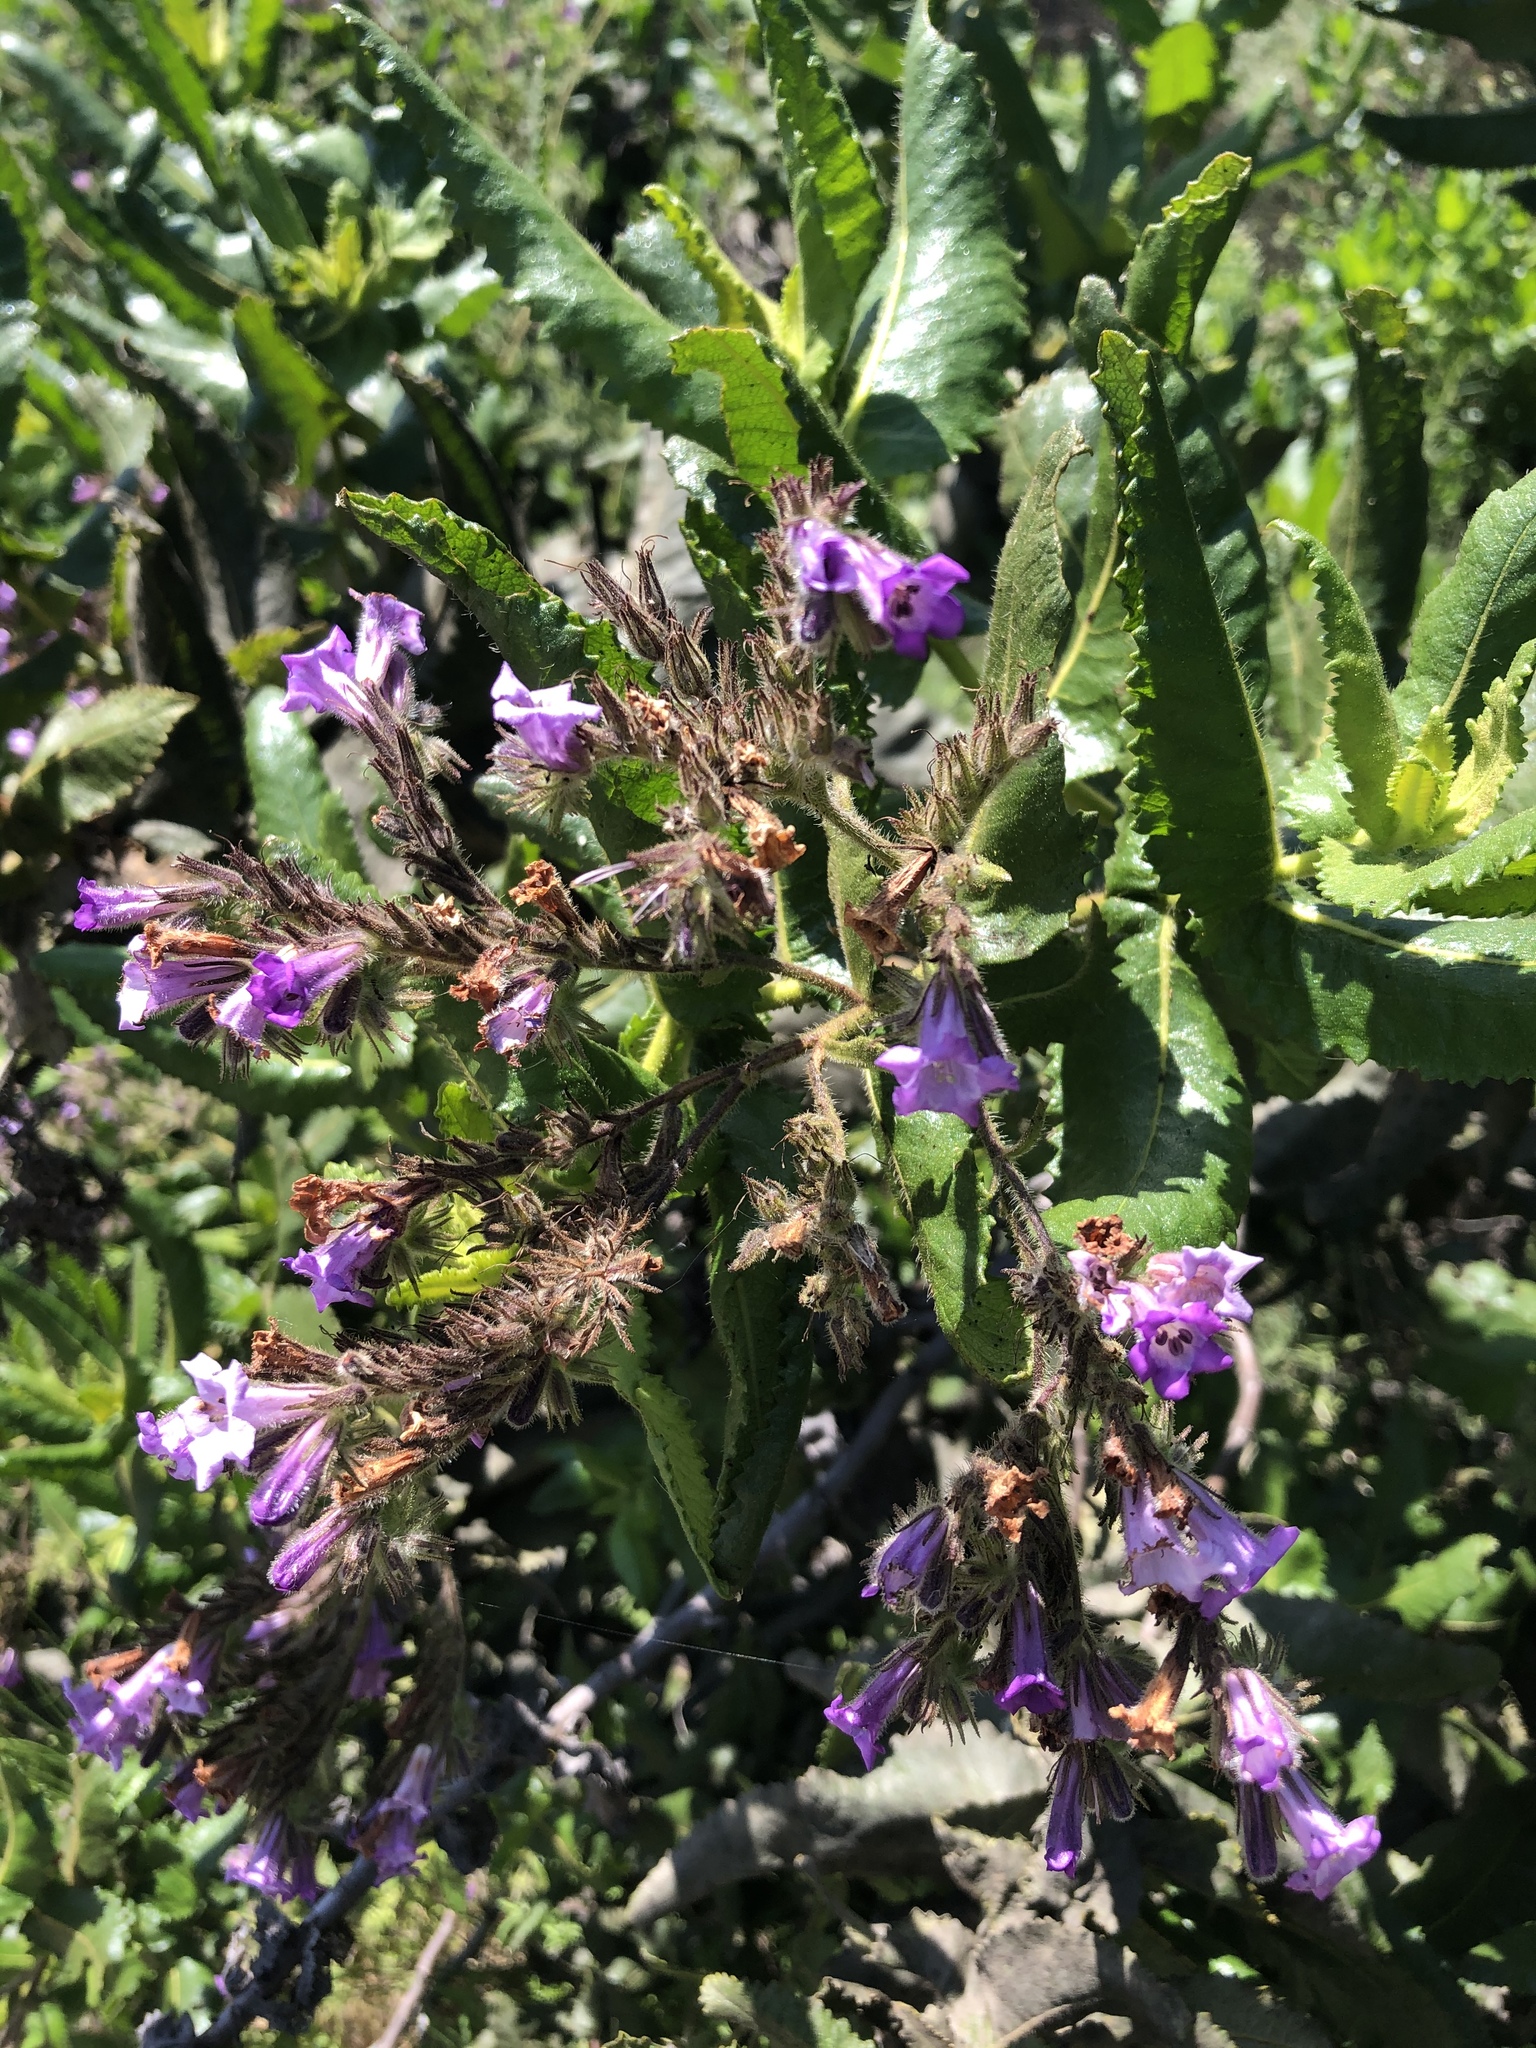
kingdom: Plantae
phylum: Tracheophyta
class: Magnoliopsida
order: Boraginales
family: Namaceae
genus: Eriodictyon
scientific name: Eriodictyon sessilifolium
